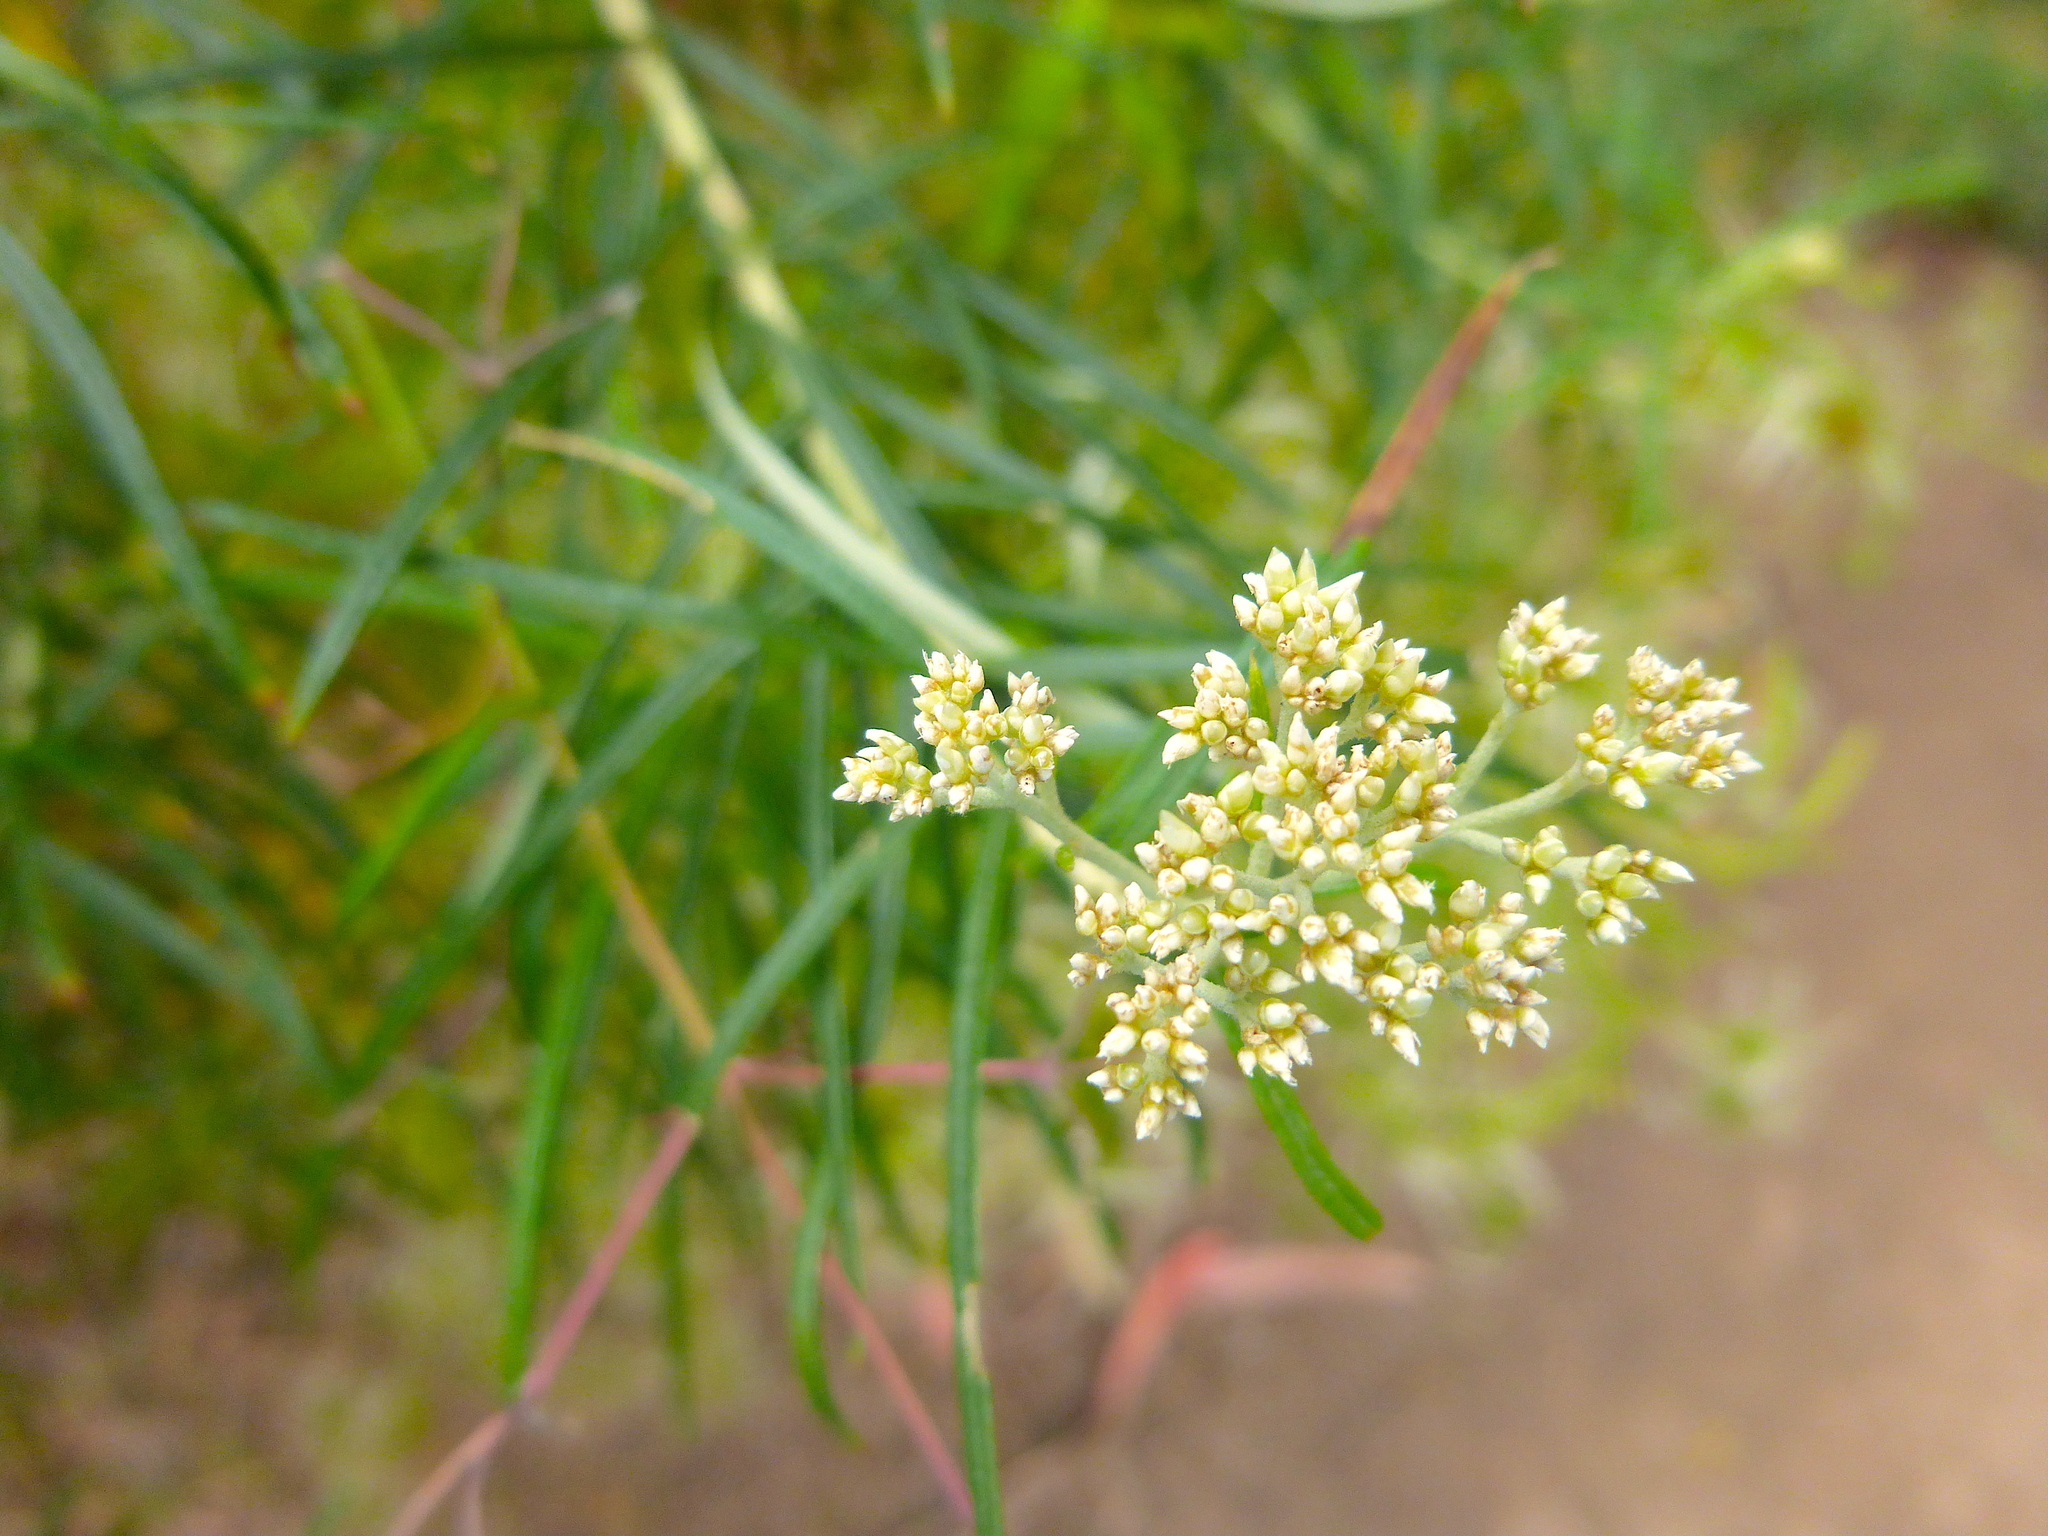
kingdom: Plantae
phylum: Tracheophyta
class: Magnoliopsida
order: Asterales
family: Asteraceae
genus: Cassinia
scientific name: Cassinia longifolia
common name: Longleaf-dogwood
